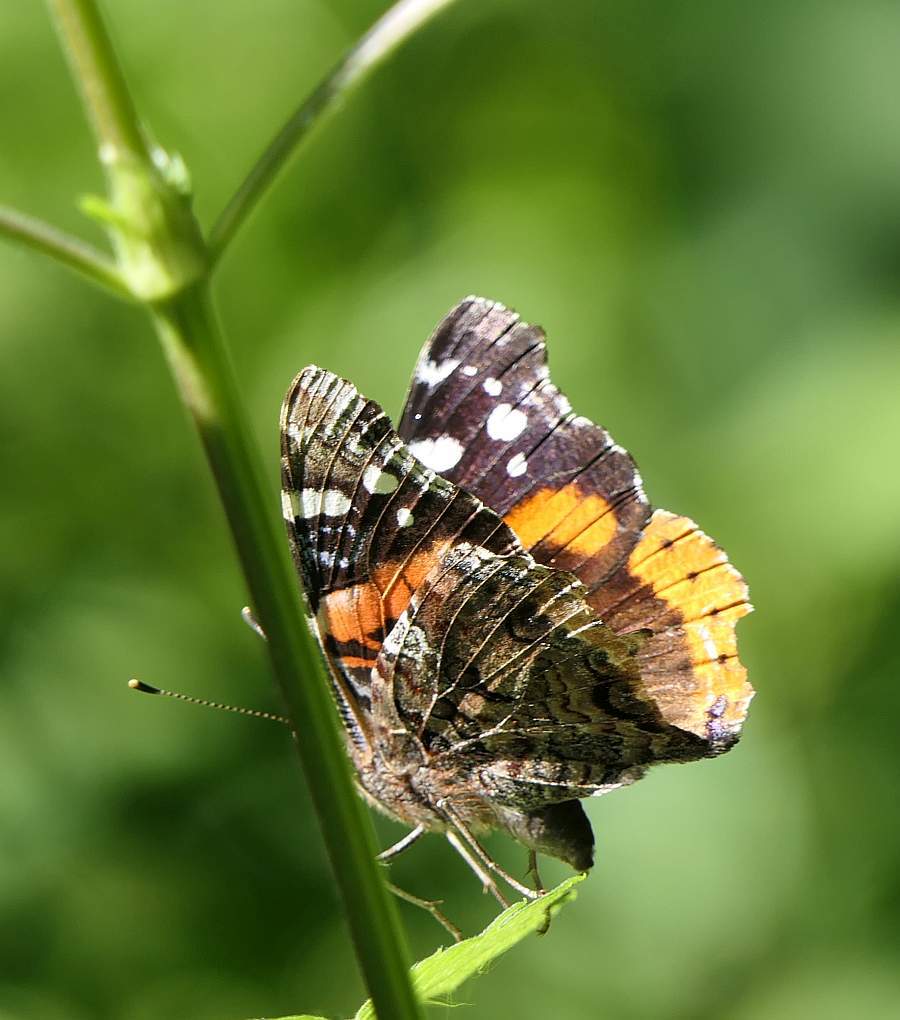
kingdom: Animalia
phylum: Arthropoda
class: Insecta
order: Lepidoptera
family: Nymphalidae
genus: Vanessa
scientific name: Vanessa atalanta
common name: Red admiral
